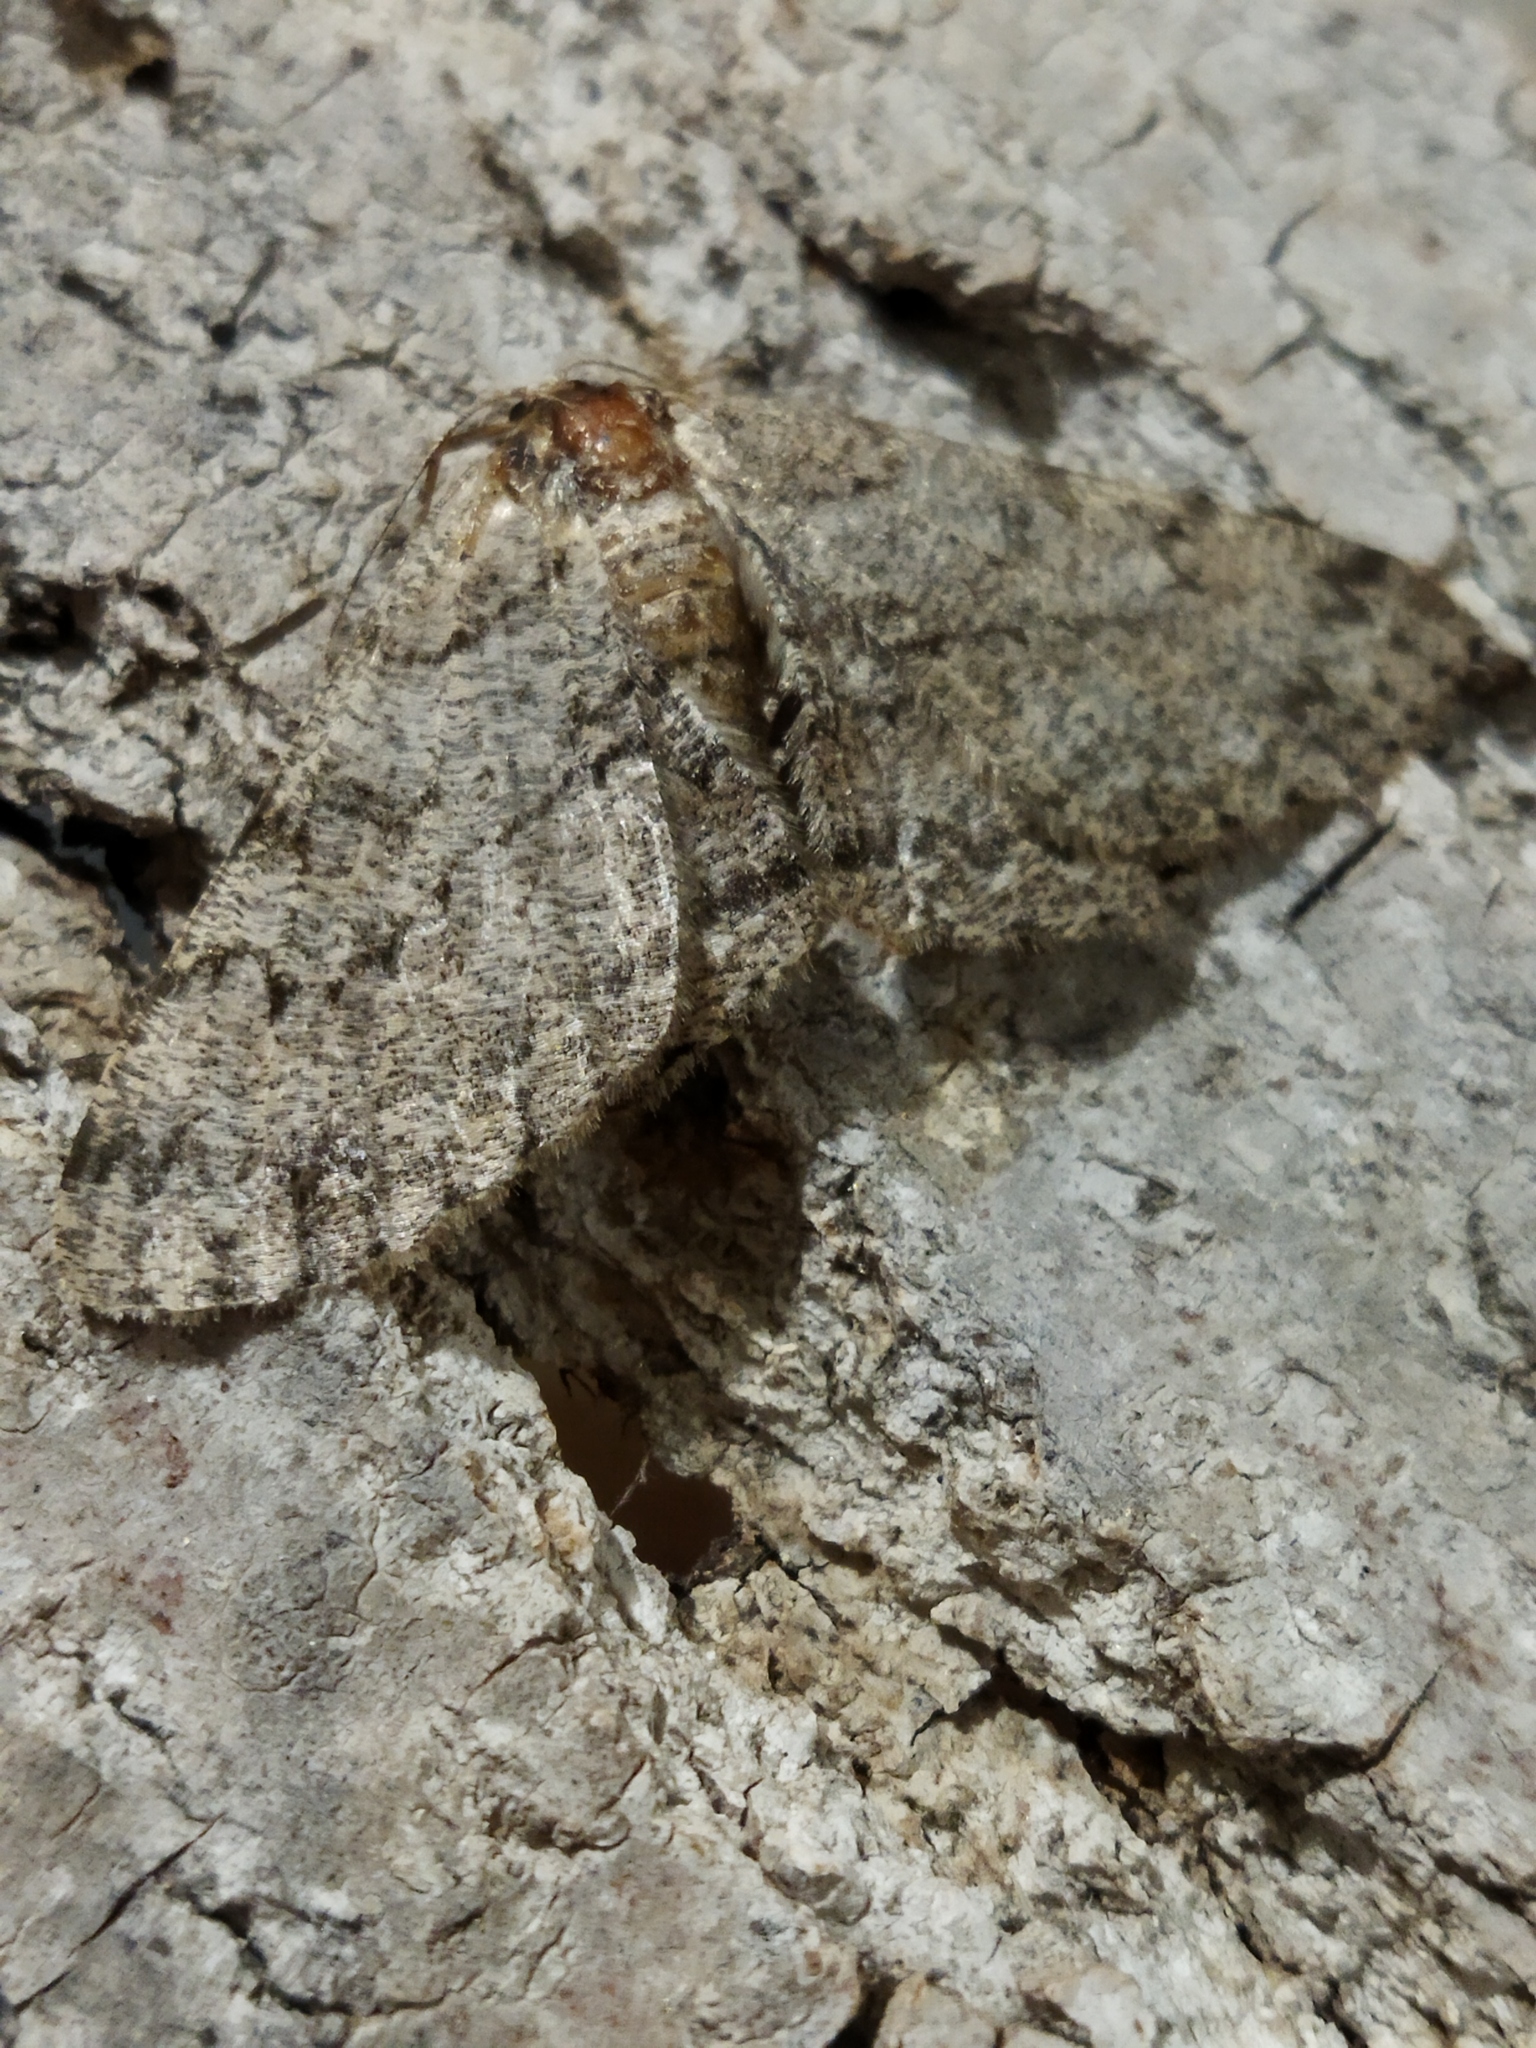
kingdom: Animalia
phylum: Arthropoda
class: Insecta
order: Lepidoptera
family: Geometridae
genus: Hypomecis
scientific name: Hypomecis punctinalis
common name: Pale oak beauty
